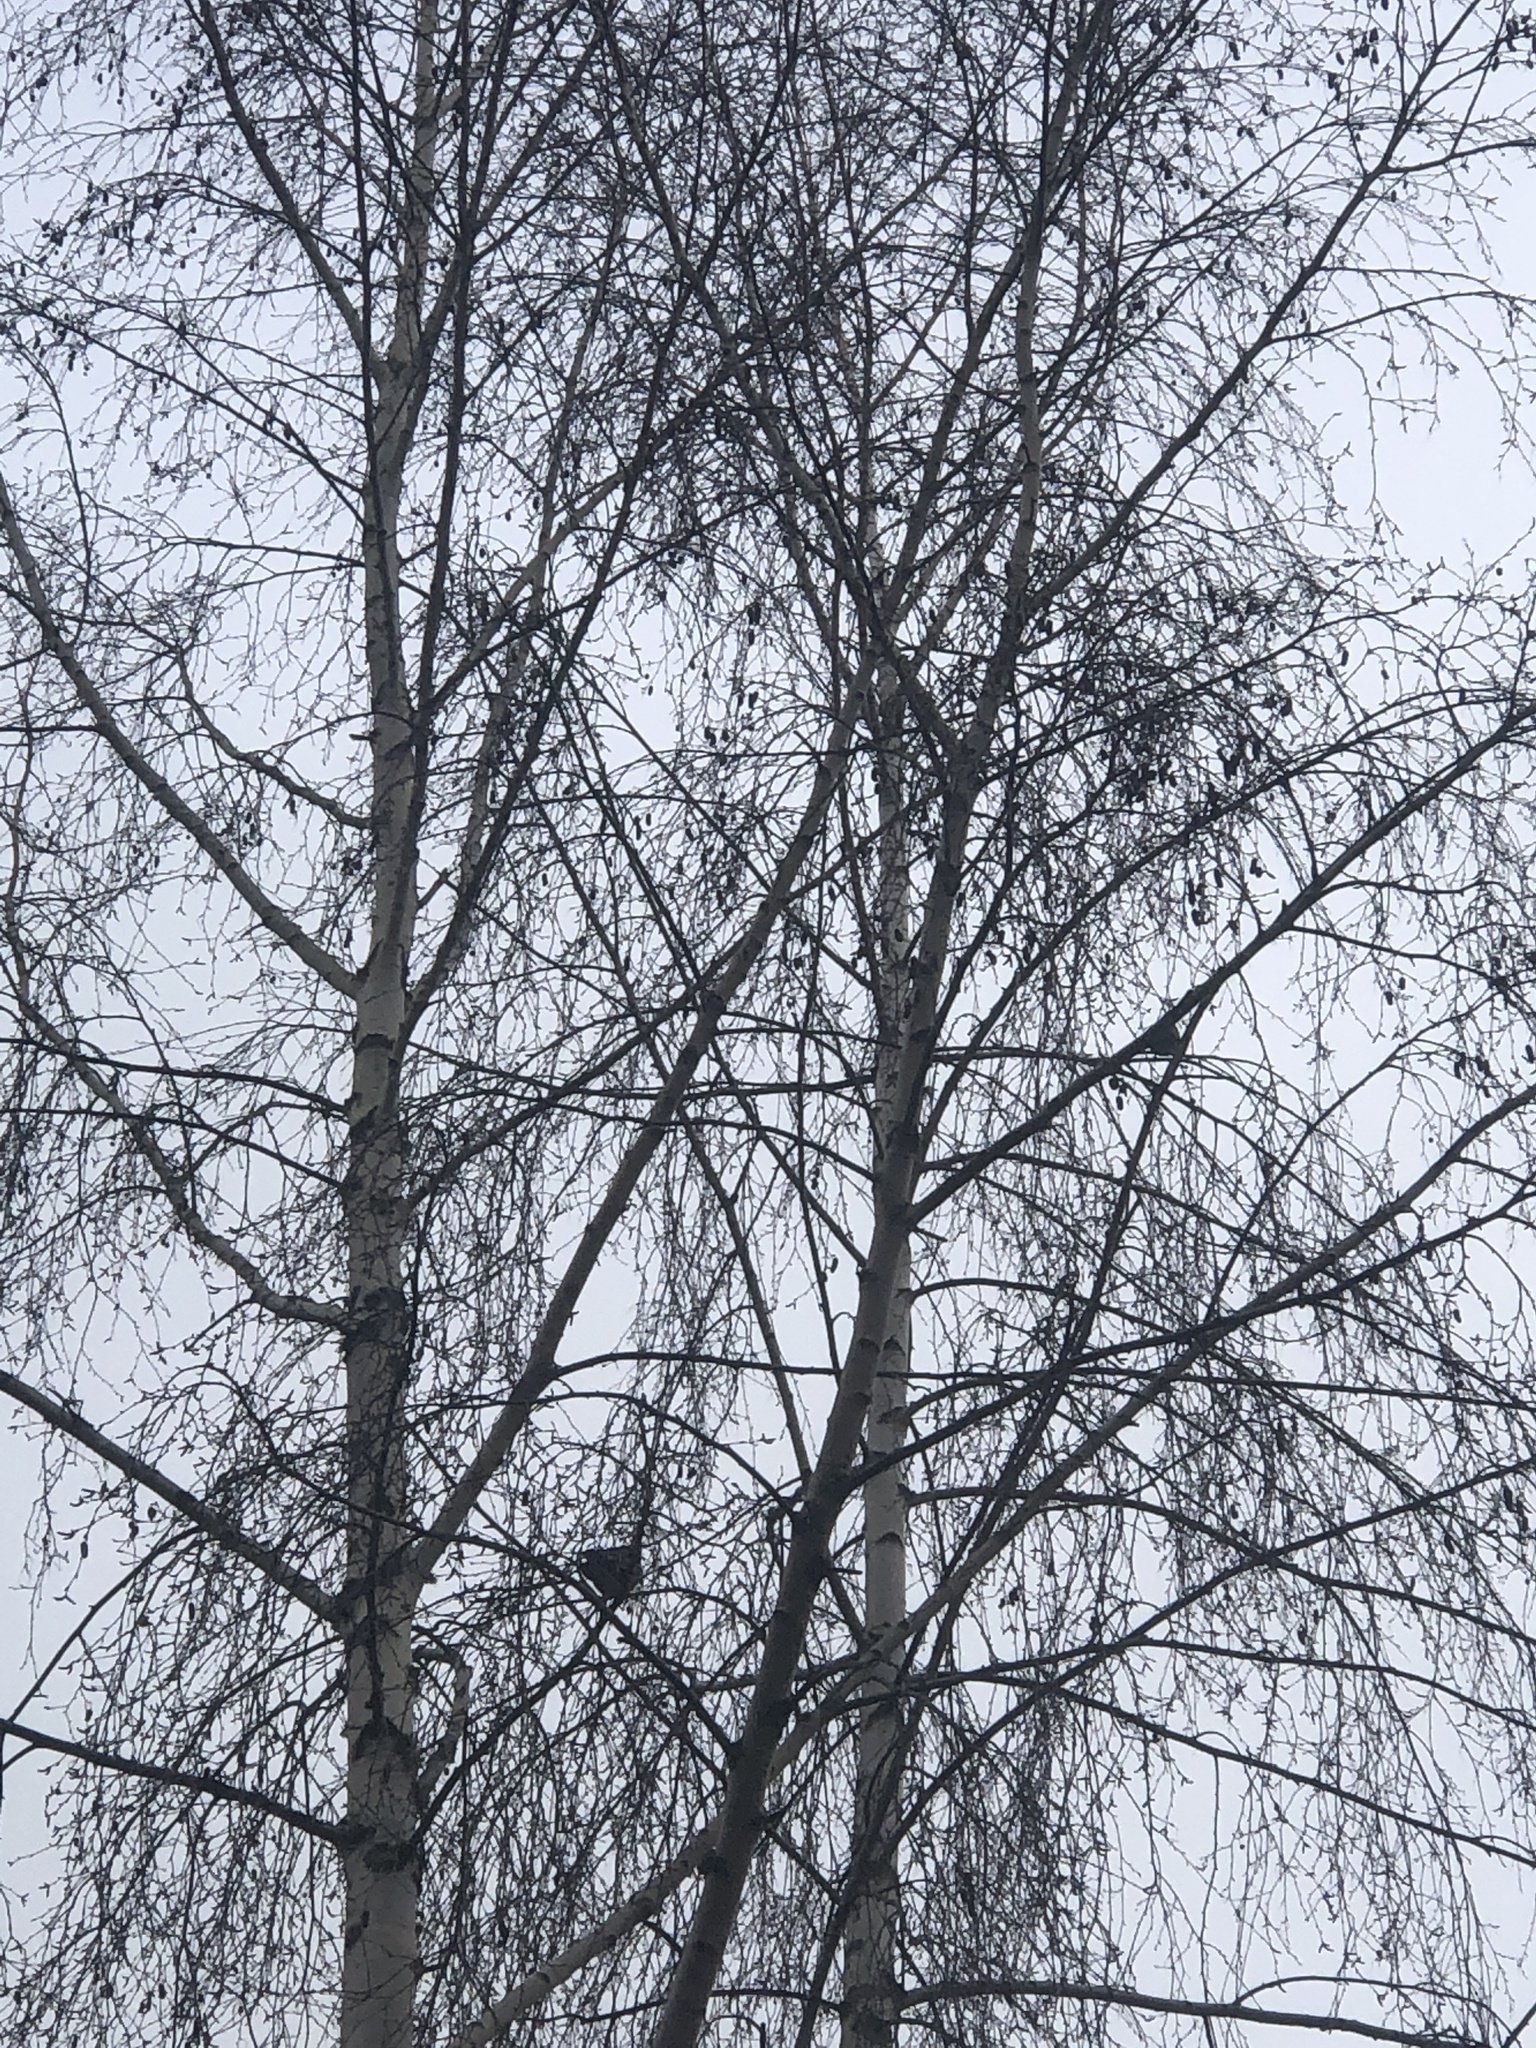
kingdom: Animalia
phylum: Chordata
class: Aves
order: Passeriformes
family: Turdidae
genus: Turdus
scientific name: Turdus migratorius
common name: American robin
